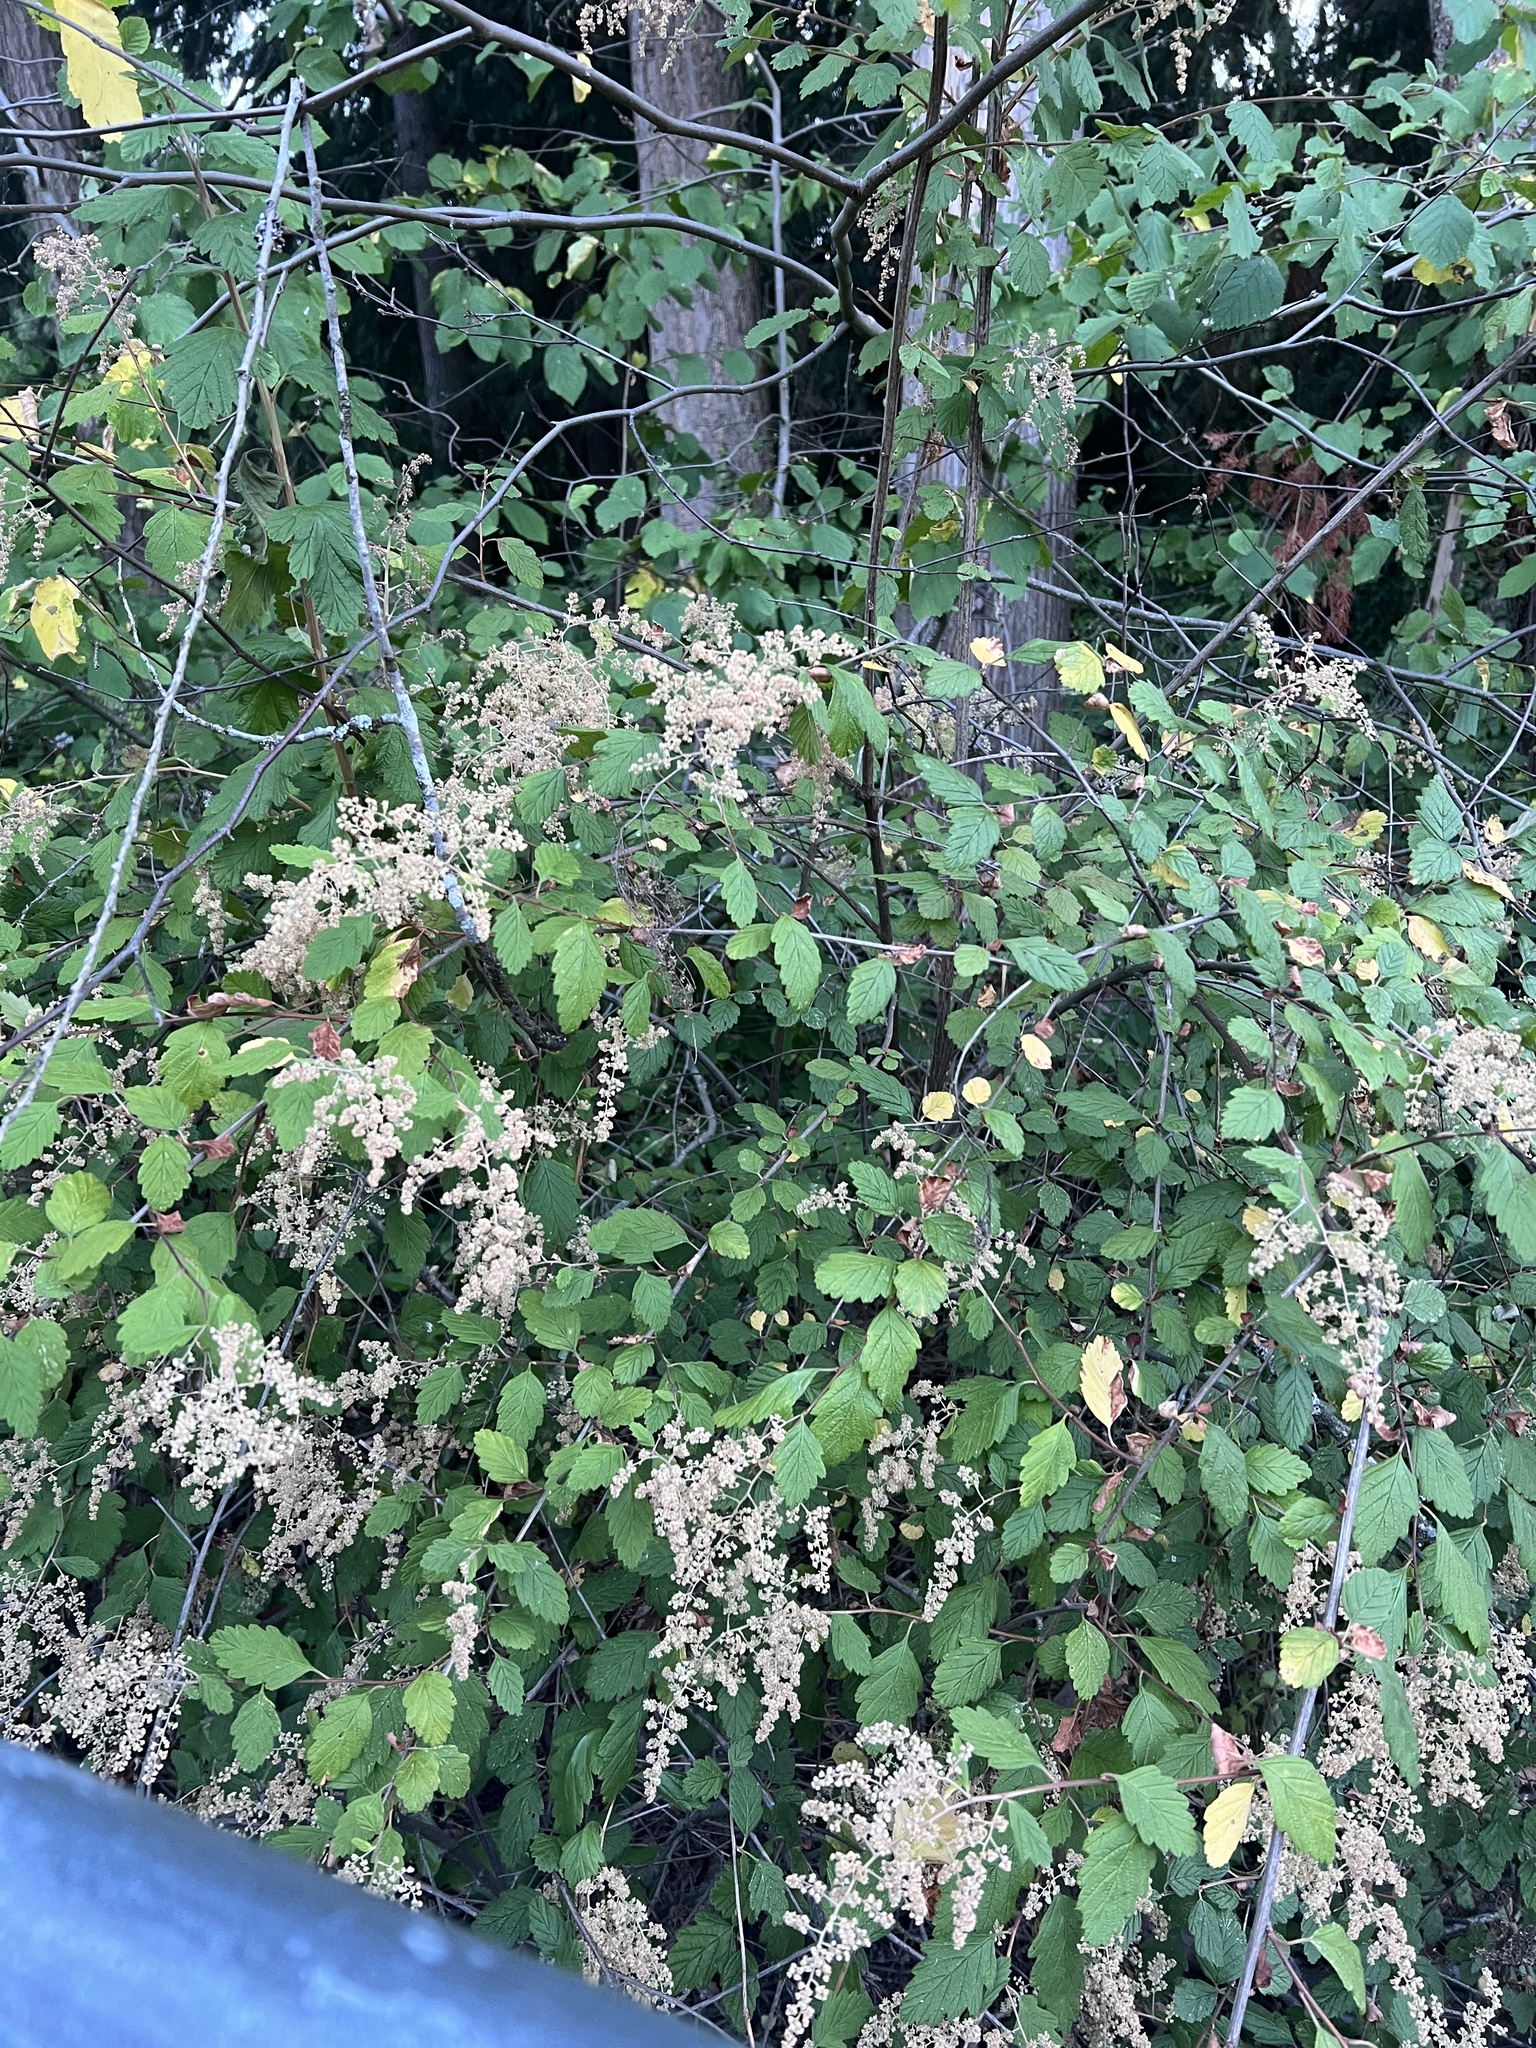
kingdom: Plantae
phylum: Tracheophyta
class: Magnoliopsida
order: Rosales
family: Rosaceae
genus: Holodiscus
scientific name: Holodiscus discolor
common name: Oceanspray
